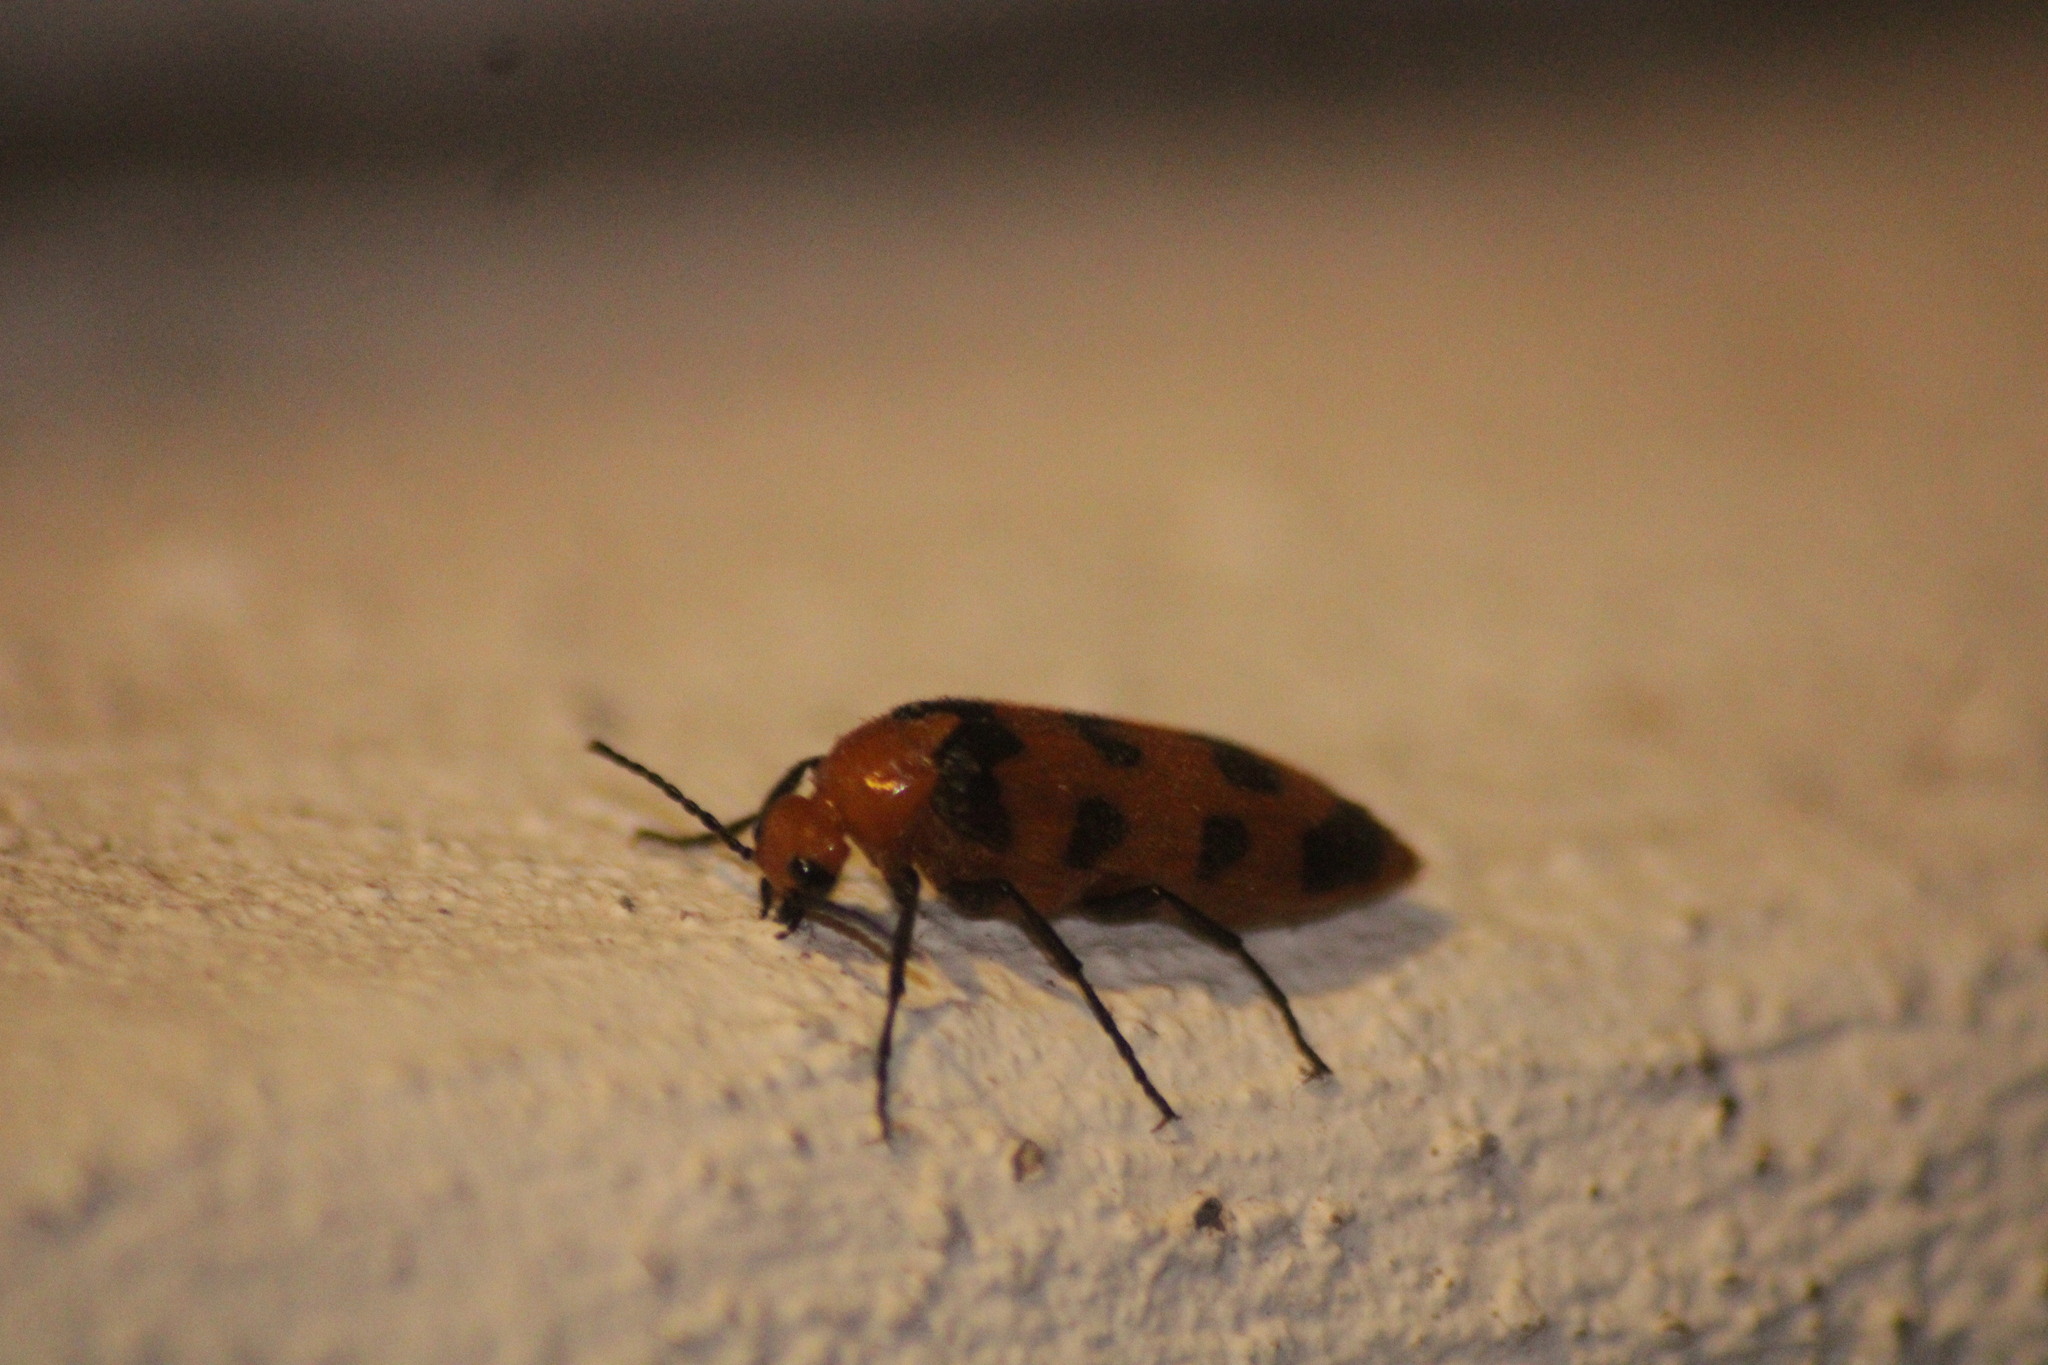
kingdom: Animalia
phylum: Arthropoda
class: Insecta
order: Coleoptera
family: Meloidae
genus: Cissites
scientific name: Cissites auriculata
